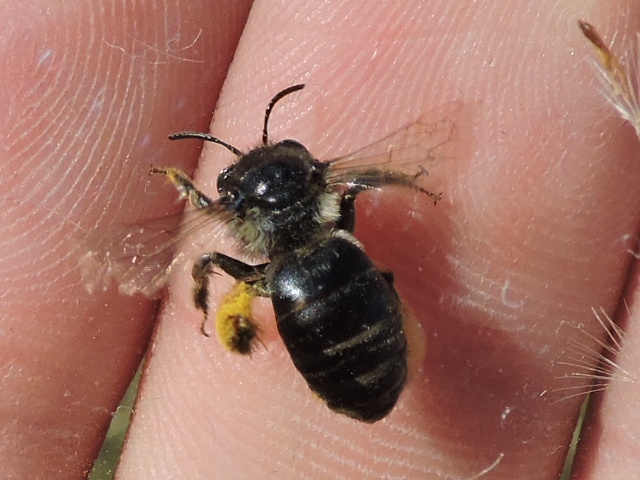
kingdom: Animalia
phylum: Arthropoda
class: Insecta
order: Hymenoptera
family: Apidae
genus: Melissodes
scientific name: Melissodes bimaculatus
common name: Two-spotted long-horned bee
